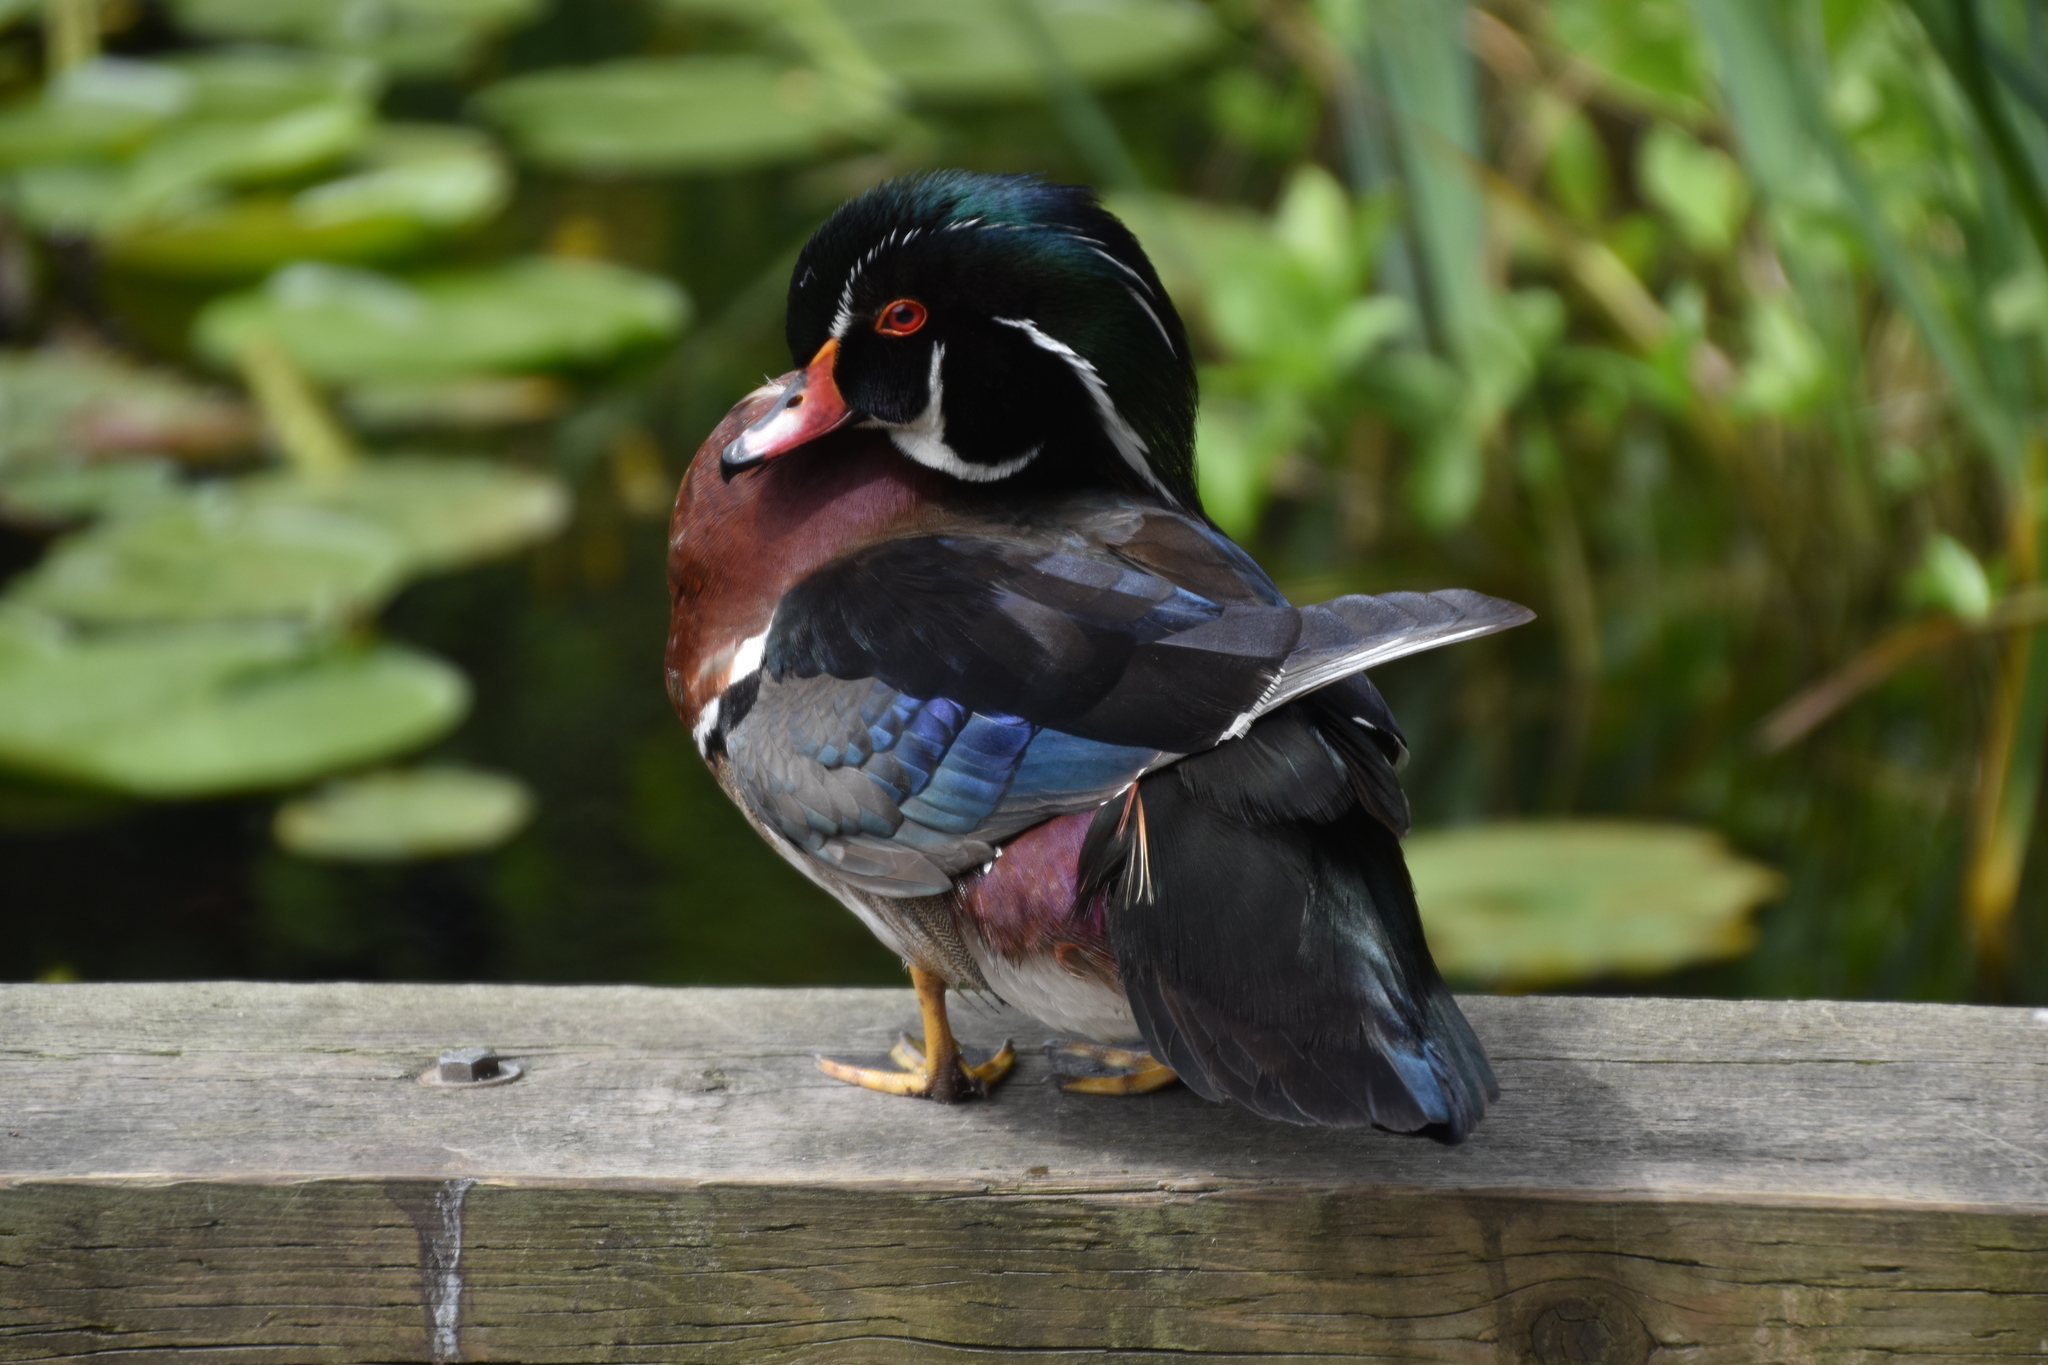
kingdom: Animalia
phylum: Chordata
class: Aves
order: Anseriformes
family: Anatidae
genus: Aix
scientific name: Aix sponsa
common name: Wood duck
